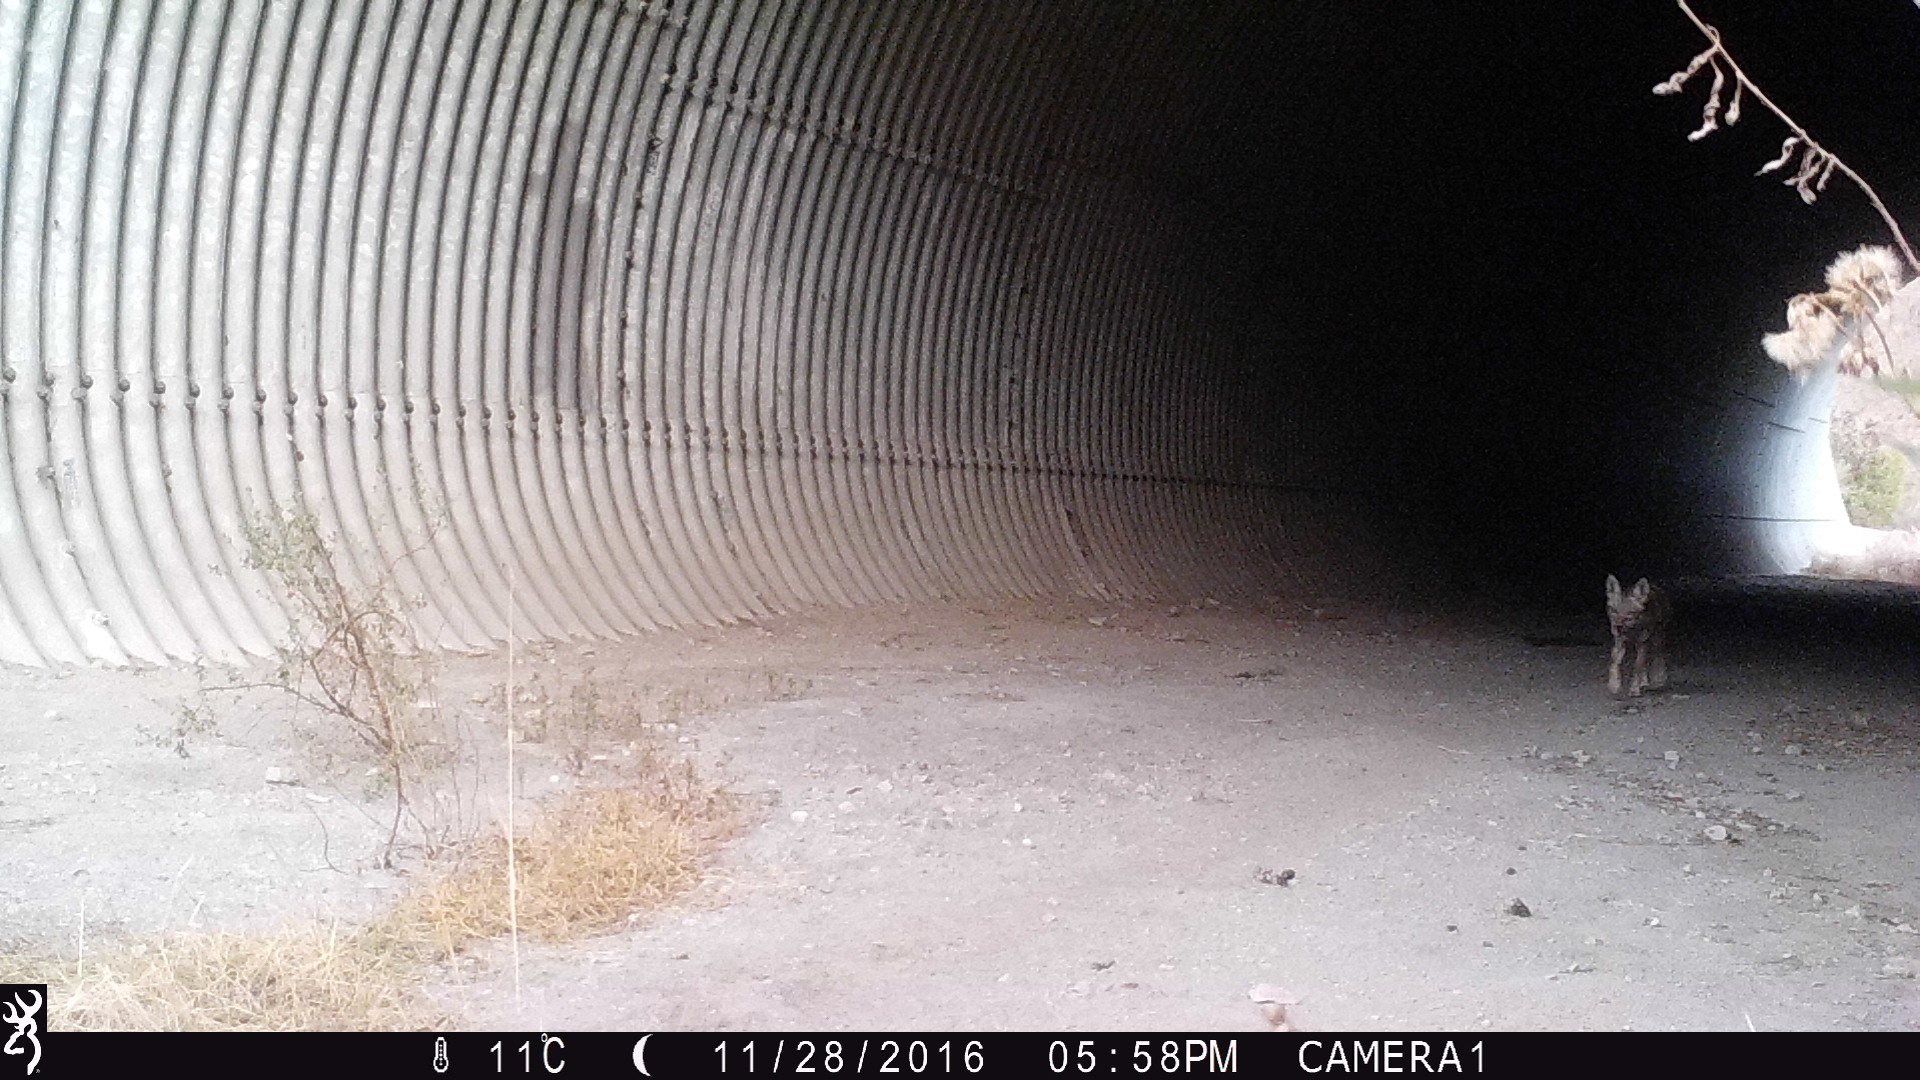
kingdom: Animalia
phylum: Chordata
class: Mammalia
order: Carnivora
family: Canidae
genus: Canis
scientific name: Canis latrans
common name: Coyote
